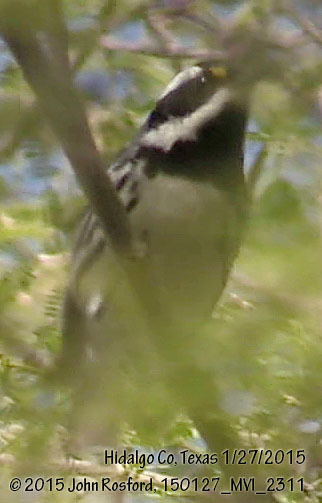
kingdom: Animalia
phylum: Chordata
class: Aves
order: Passeriformes
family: Parulidae
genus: Setophaga
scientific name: Setophaga nigrescens
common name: Black-throated gray warbler
